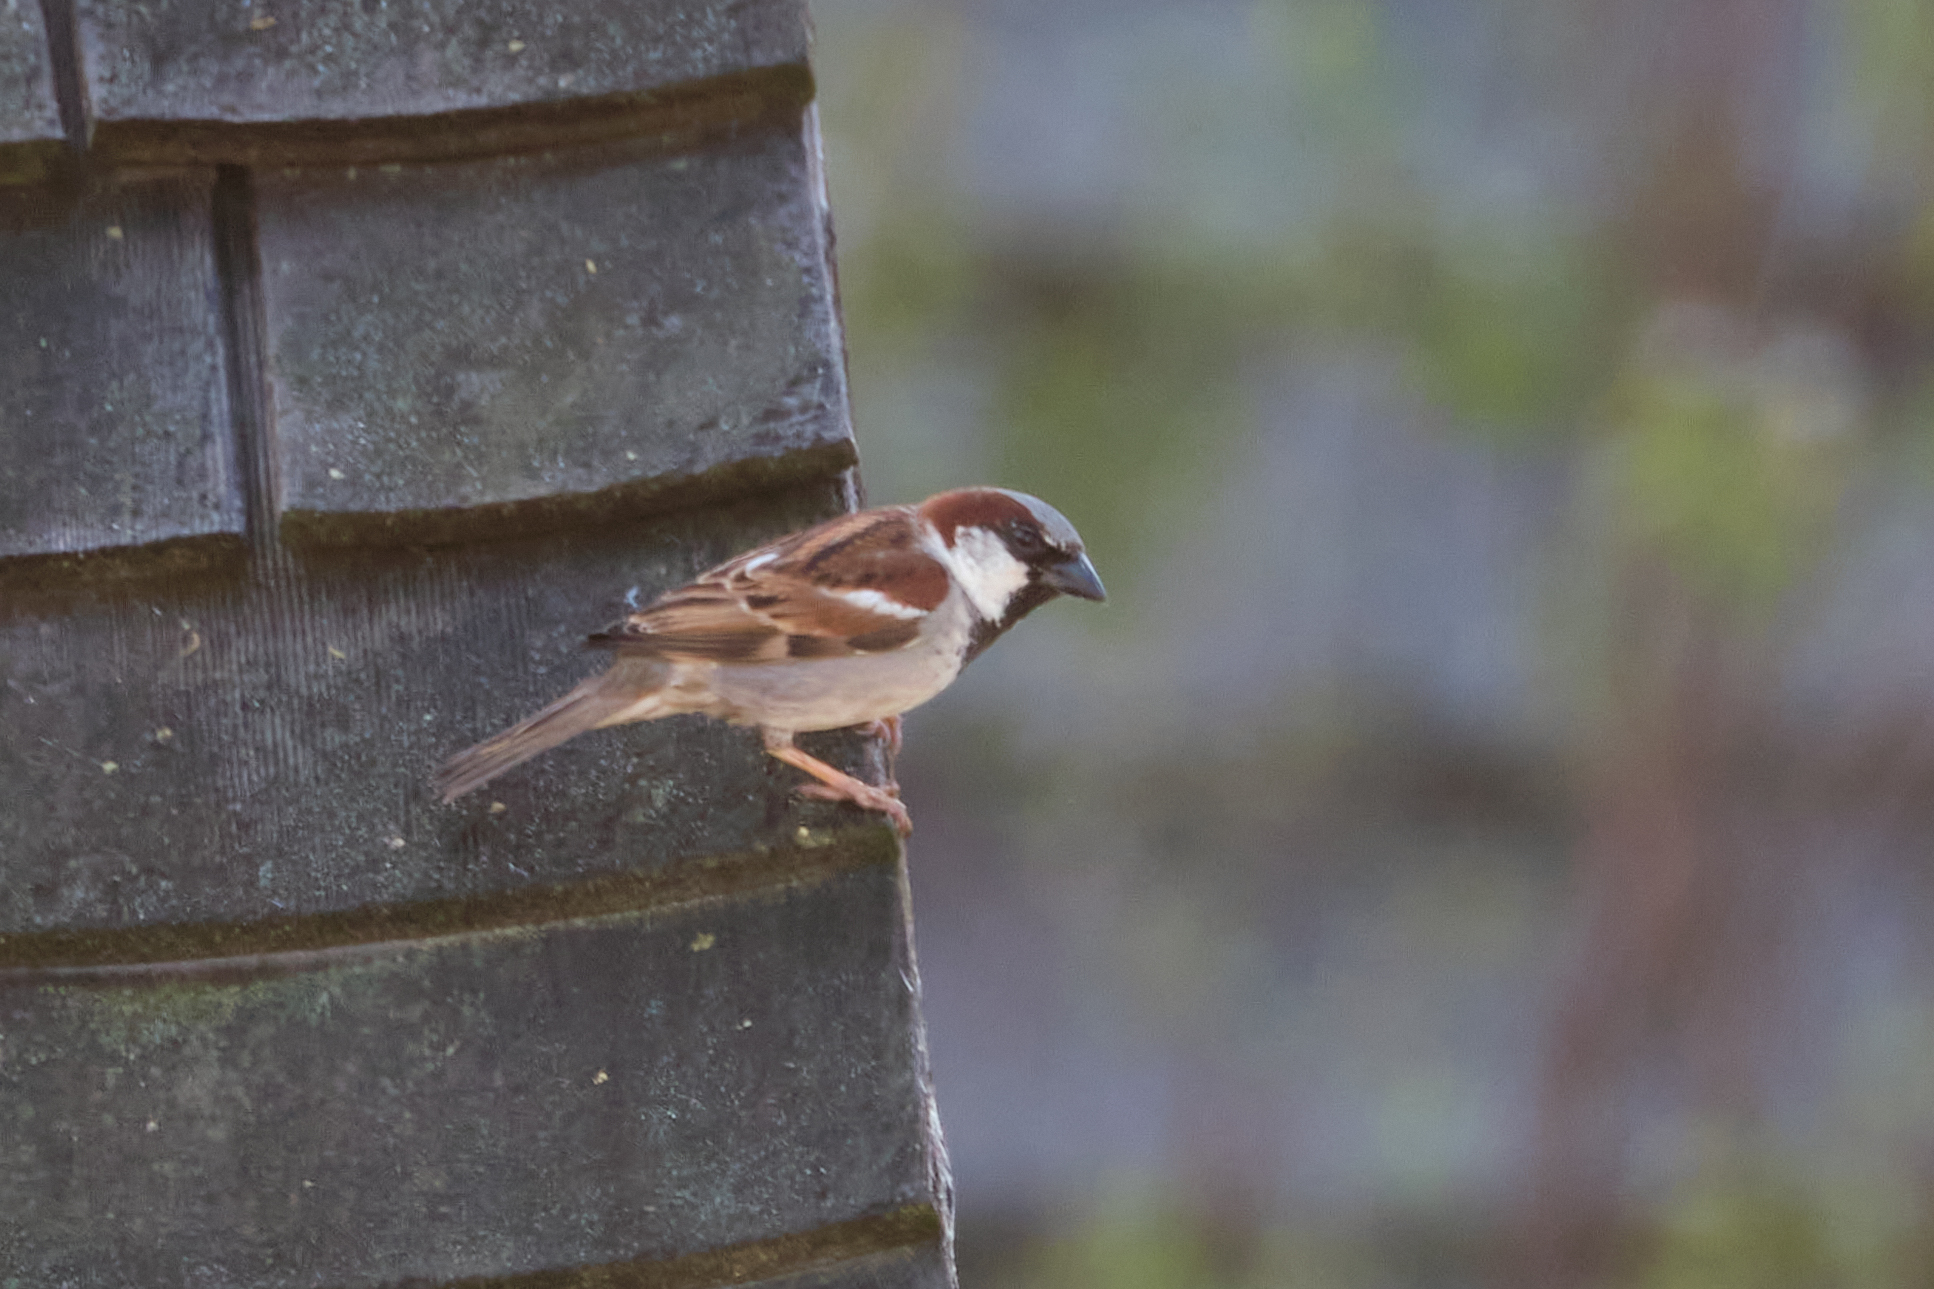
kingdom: Animalia
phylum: Chordata
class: Aves
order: Passeriformes
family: Passeridae
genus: Passer
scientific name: Passer domesticus
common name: House sparrow
